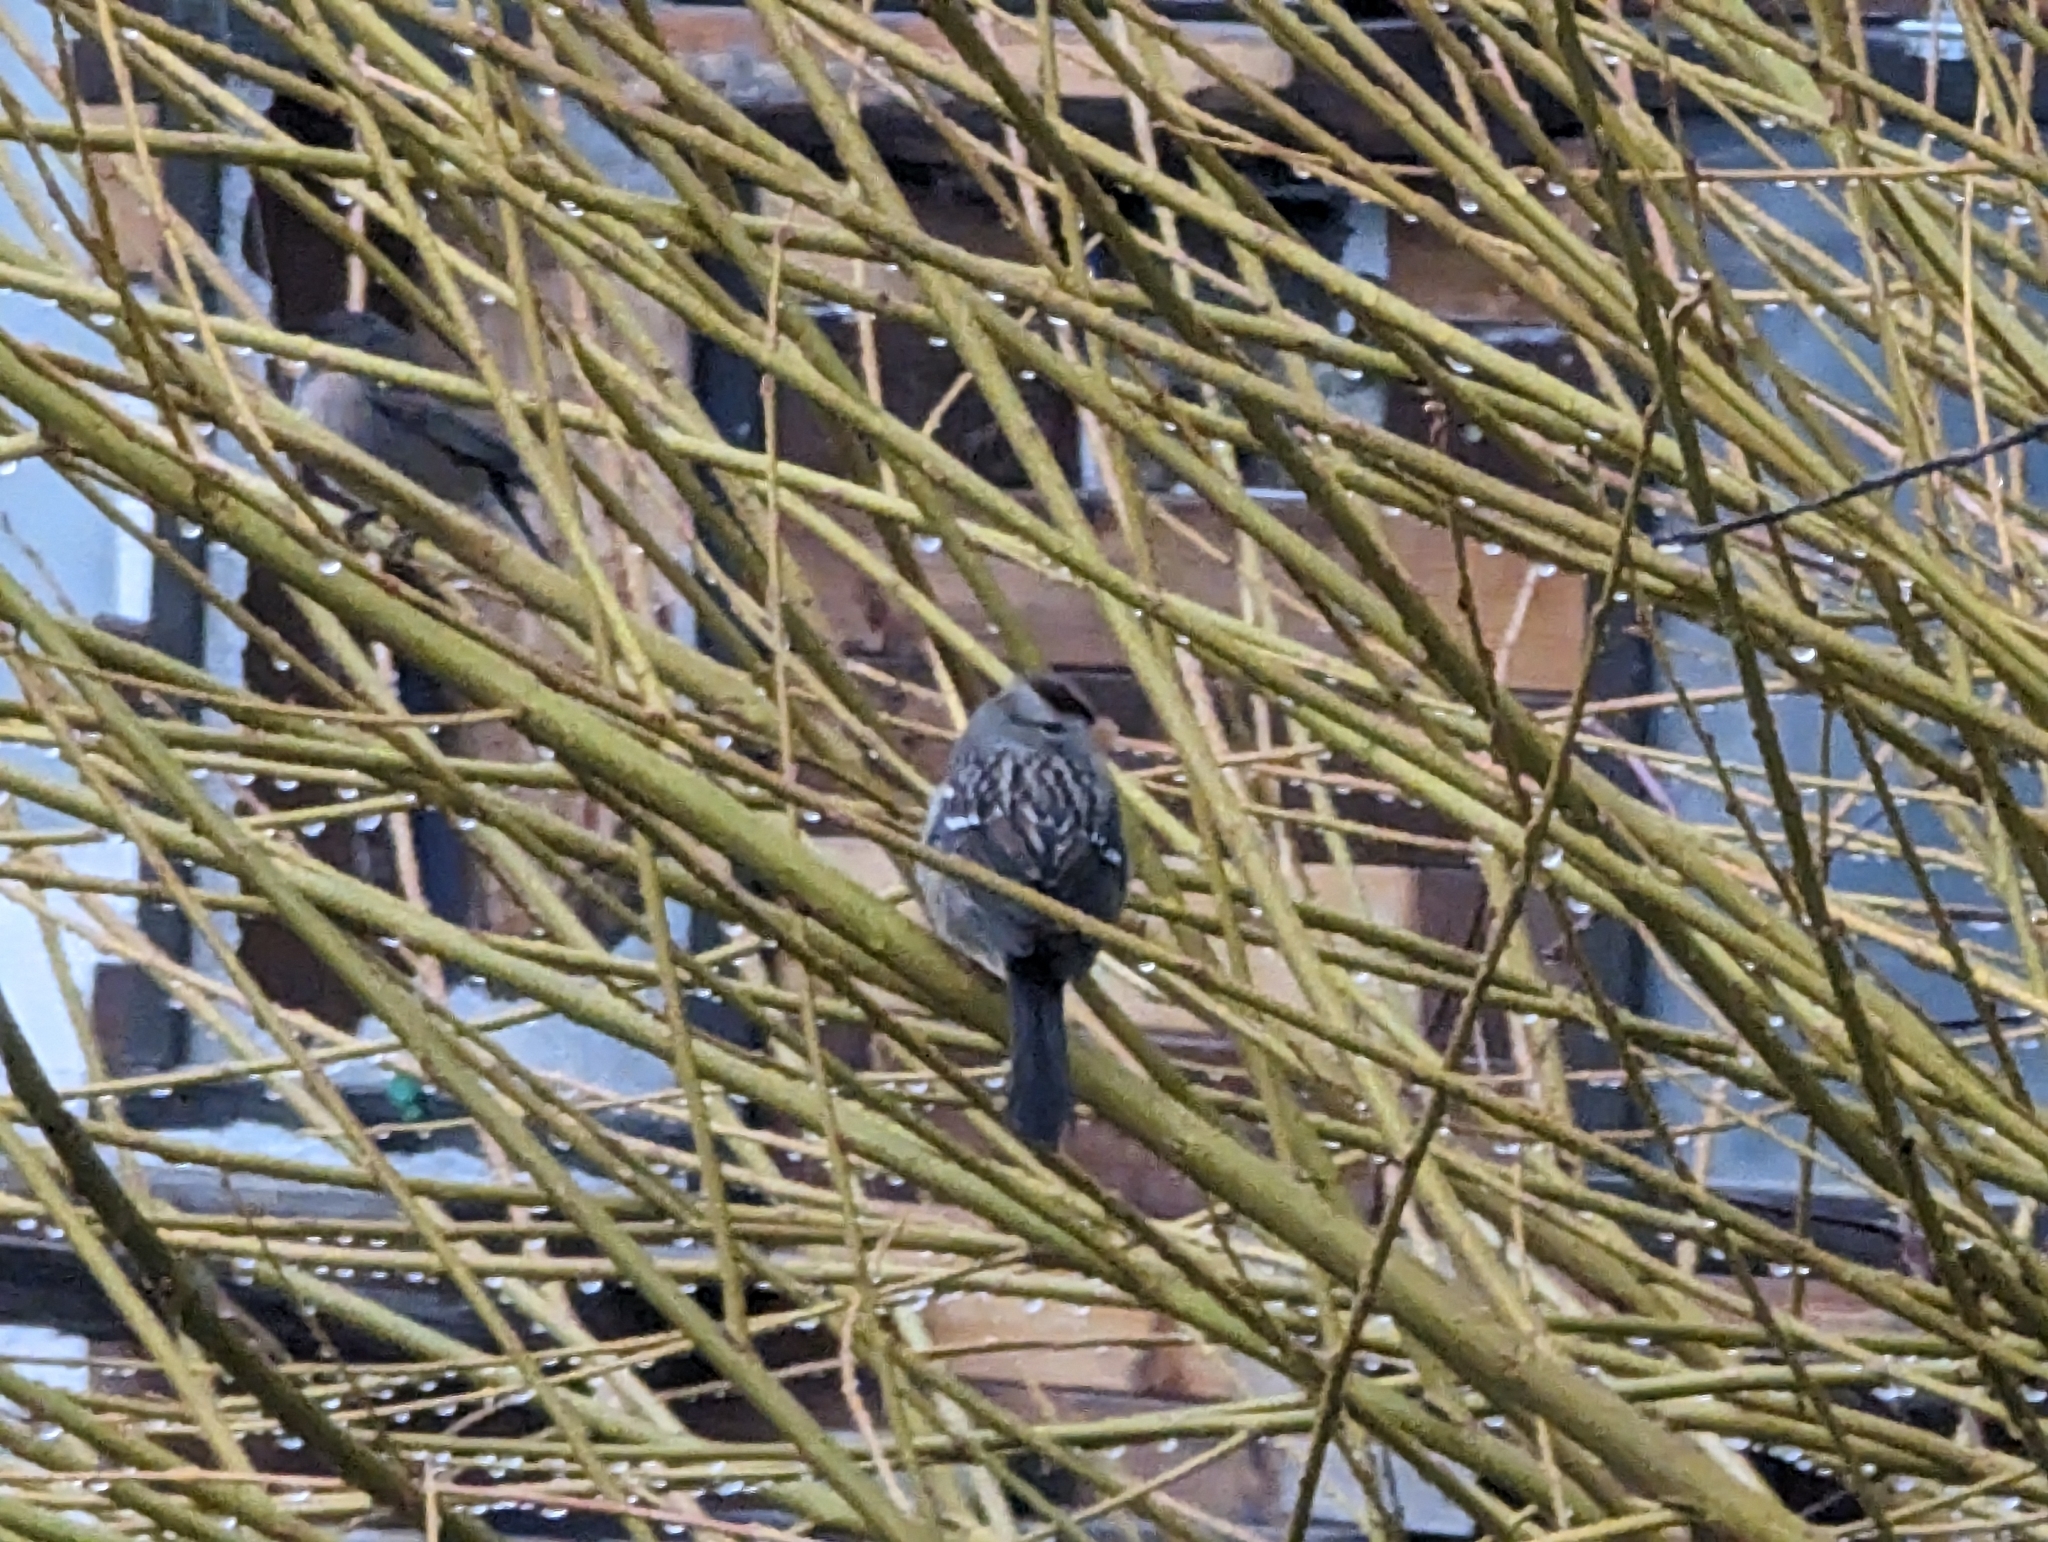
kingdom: Animalia
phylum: Chordata
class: Aves
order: Passeriformes
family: Passerellidae
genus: Zonotrichia
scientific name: Zonotrichia leucophrys
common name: White-crowned sparrow
